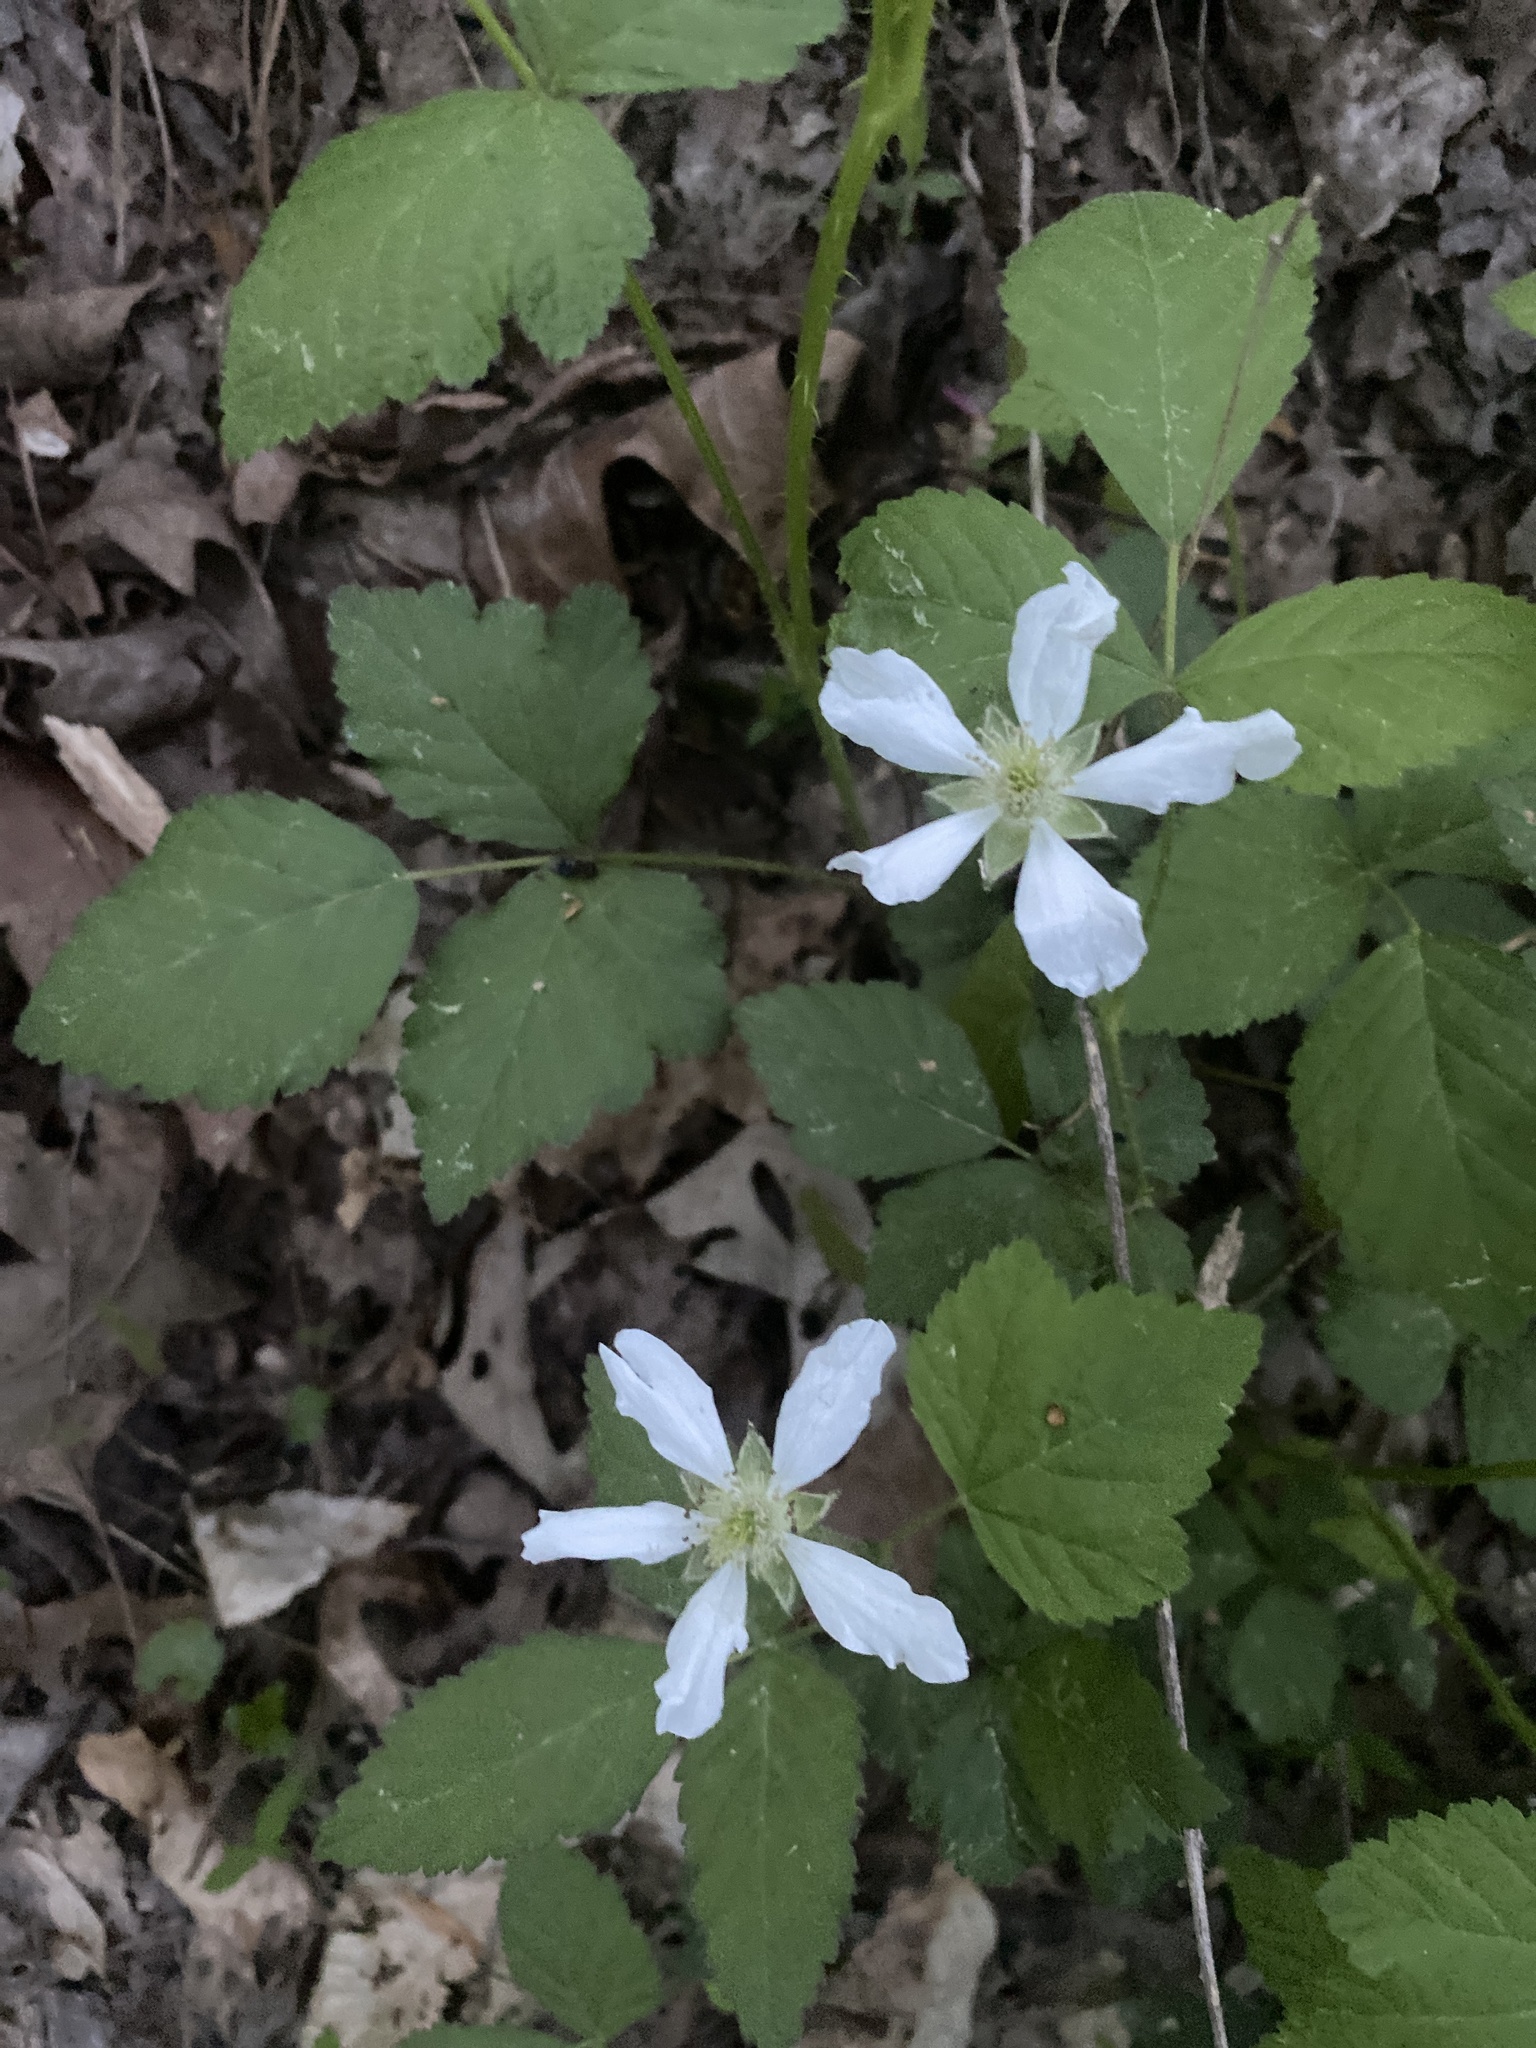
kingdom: Plantae
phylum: Tracheophyta
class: Magnoliopsida
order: Rosales
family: Rosaceae
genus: Rubus
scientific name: Rubus flagellaris
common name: American dewberry
